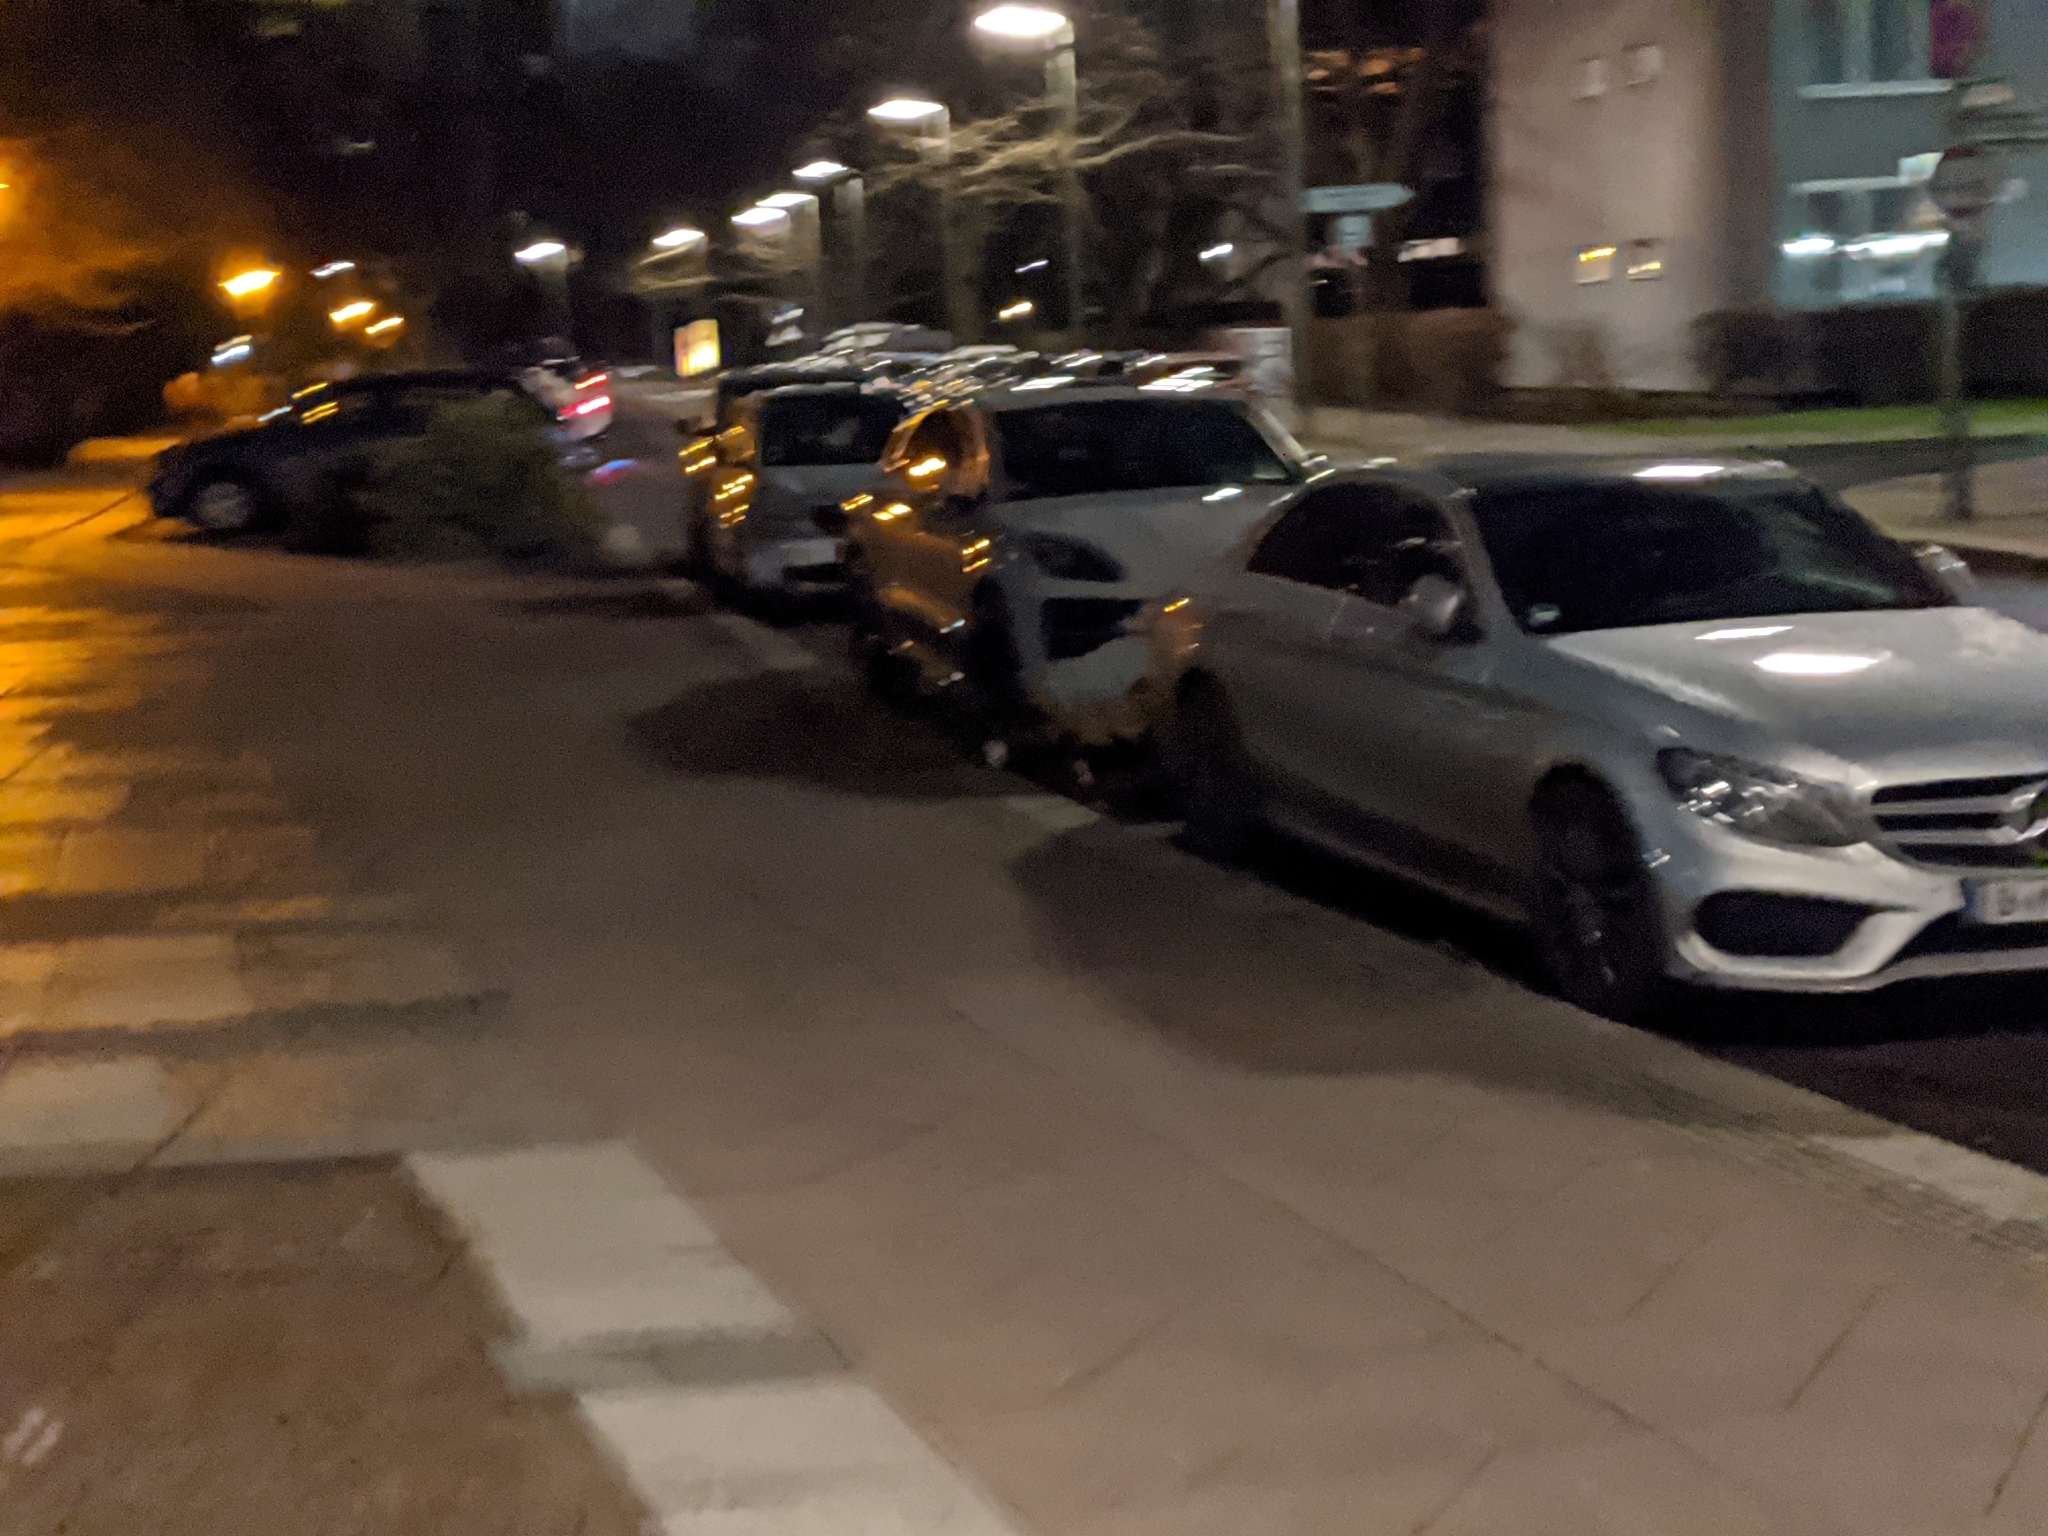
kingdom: Animalia
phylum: Chordata
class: Mammalia
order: Carnivora
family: Canidae
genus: Vulpes
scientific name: Vulpes vulpes
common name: Red fox
